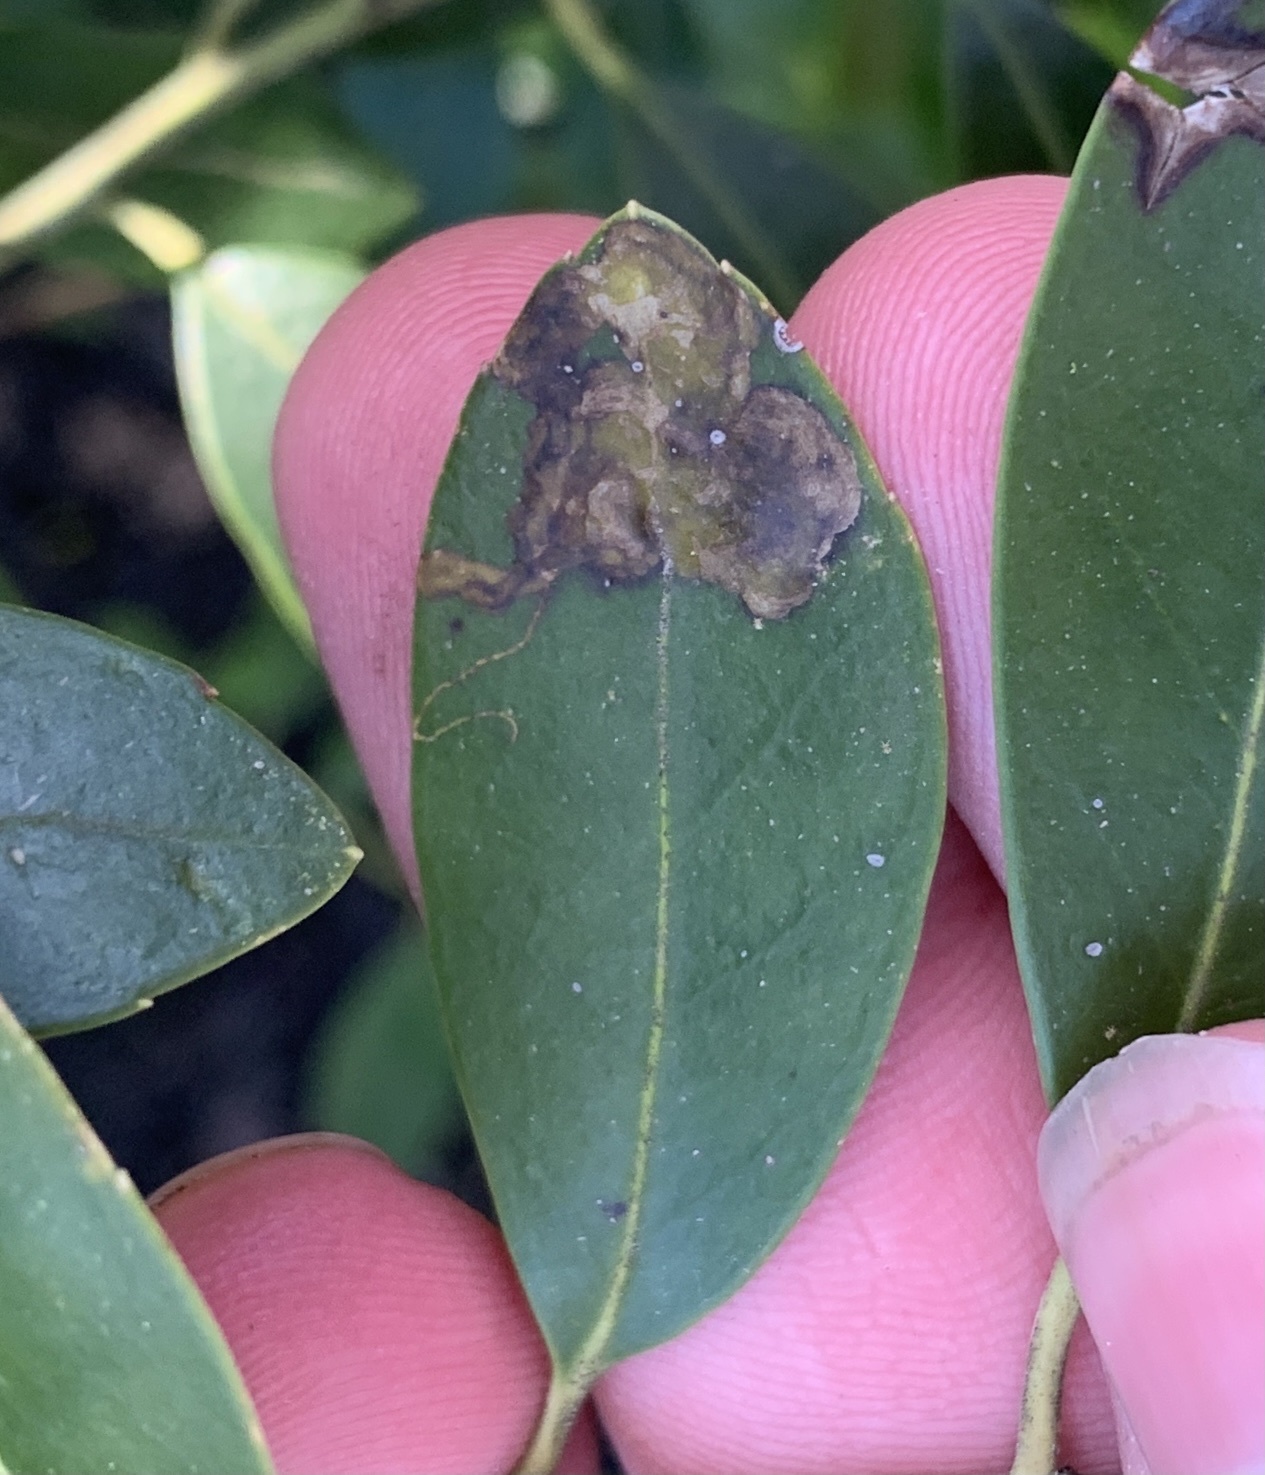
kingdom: Animalia
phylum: Arthropoda
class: Insecta
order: Diptera
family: Agromyzidae
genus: Phytomyza
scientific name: Phytomyza glabricola
